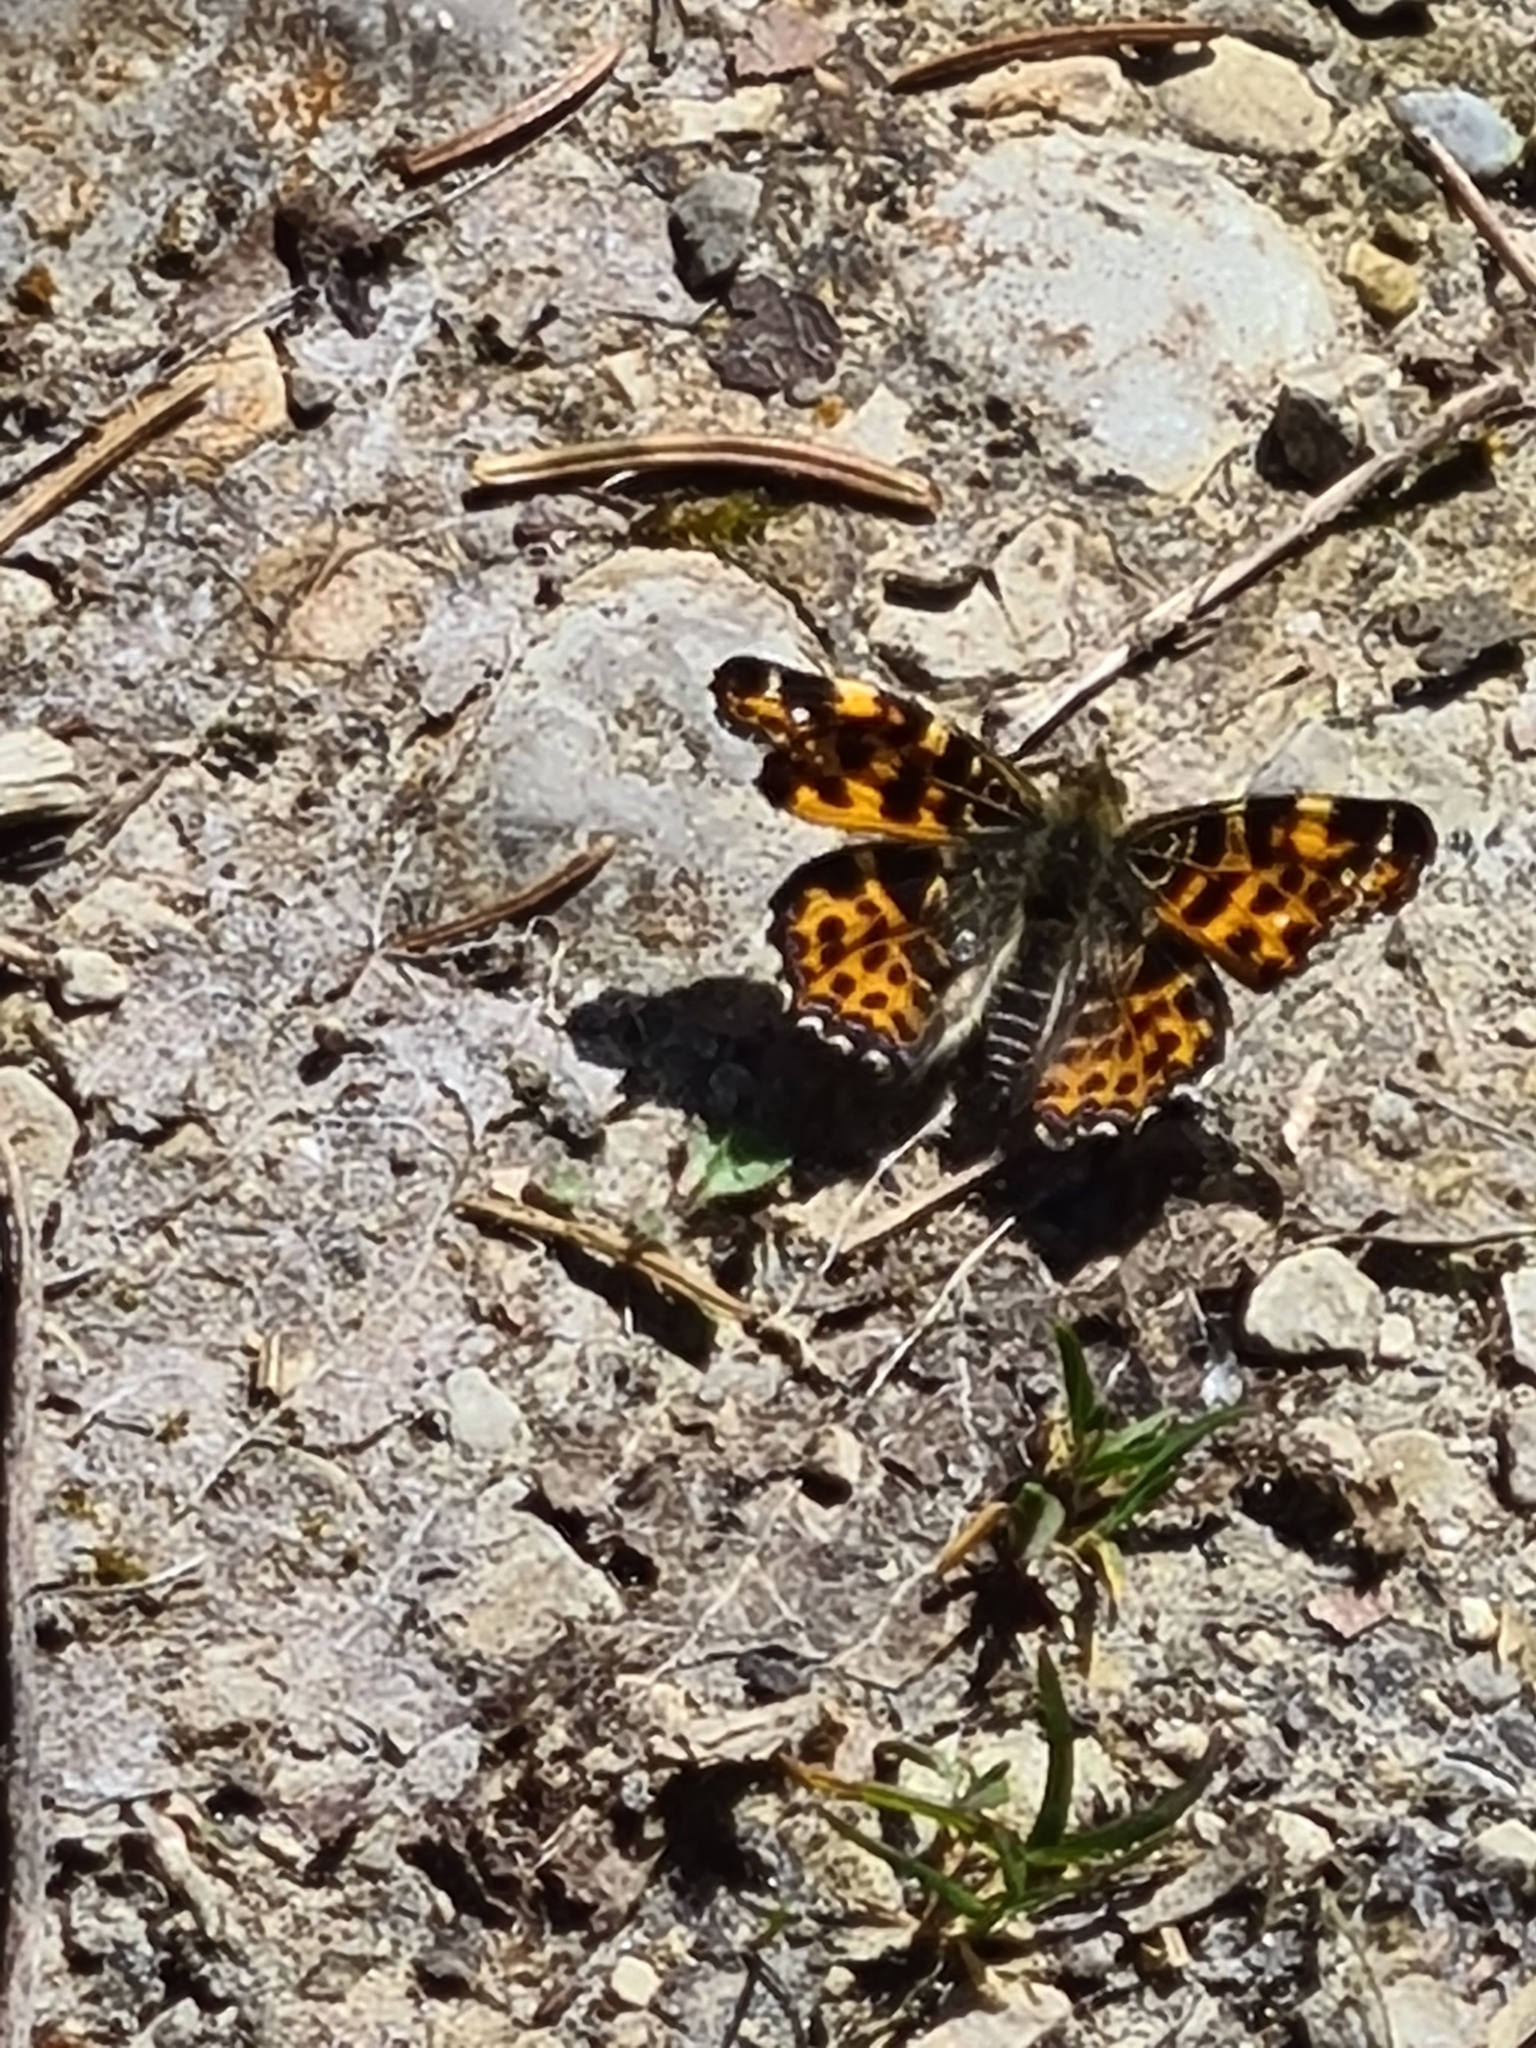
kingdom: Animalia
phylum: Arthropoda
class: Insecta
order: Lepidoptera
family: Nymphalidae
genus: Araschnia
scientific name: Araschnia levana
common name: Map butterfly
